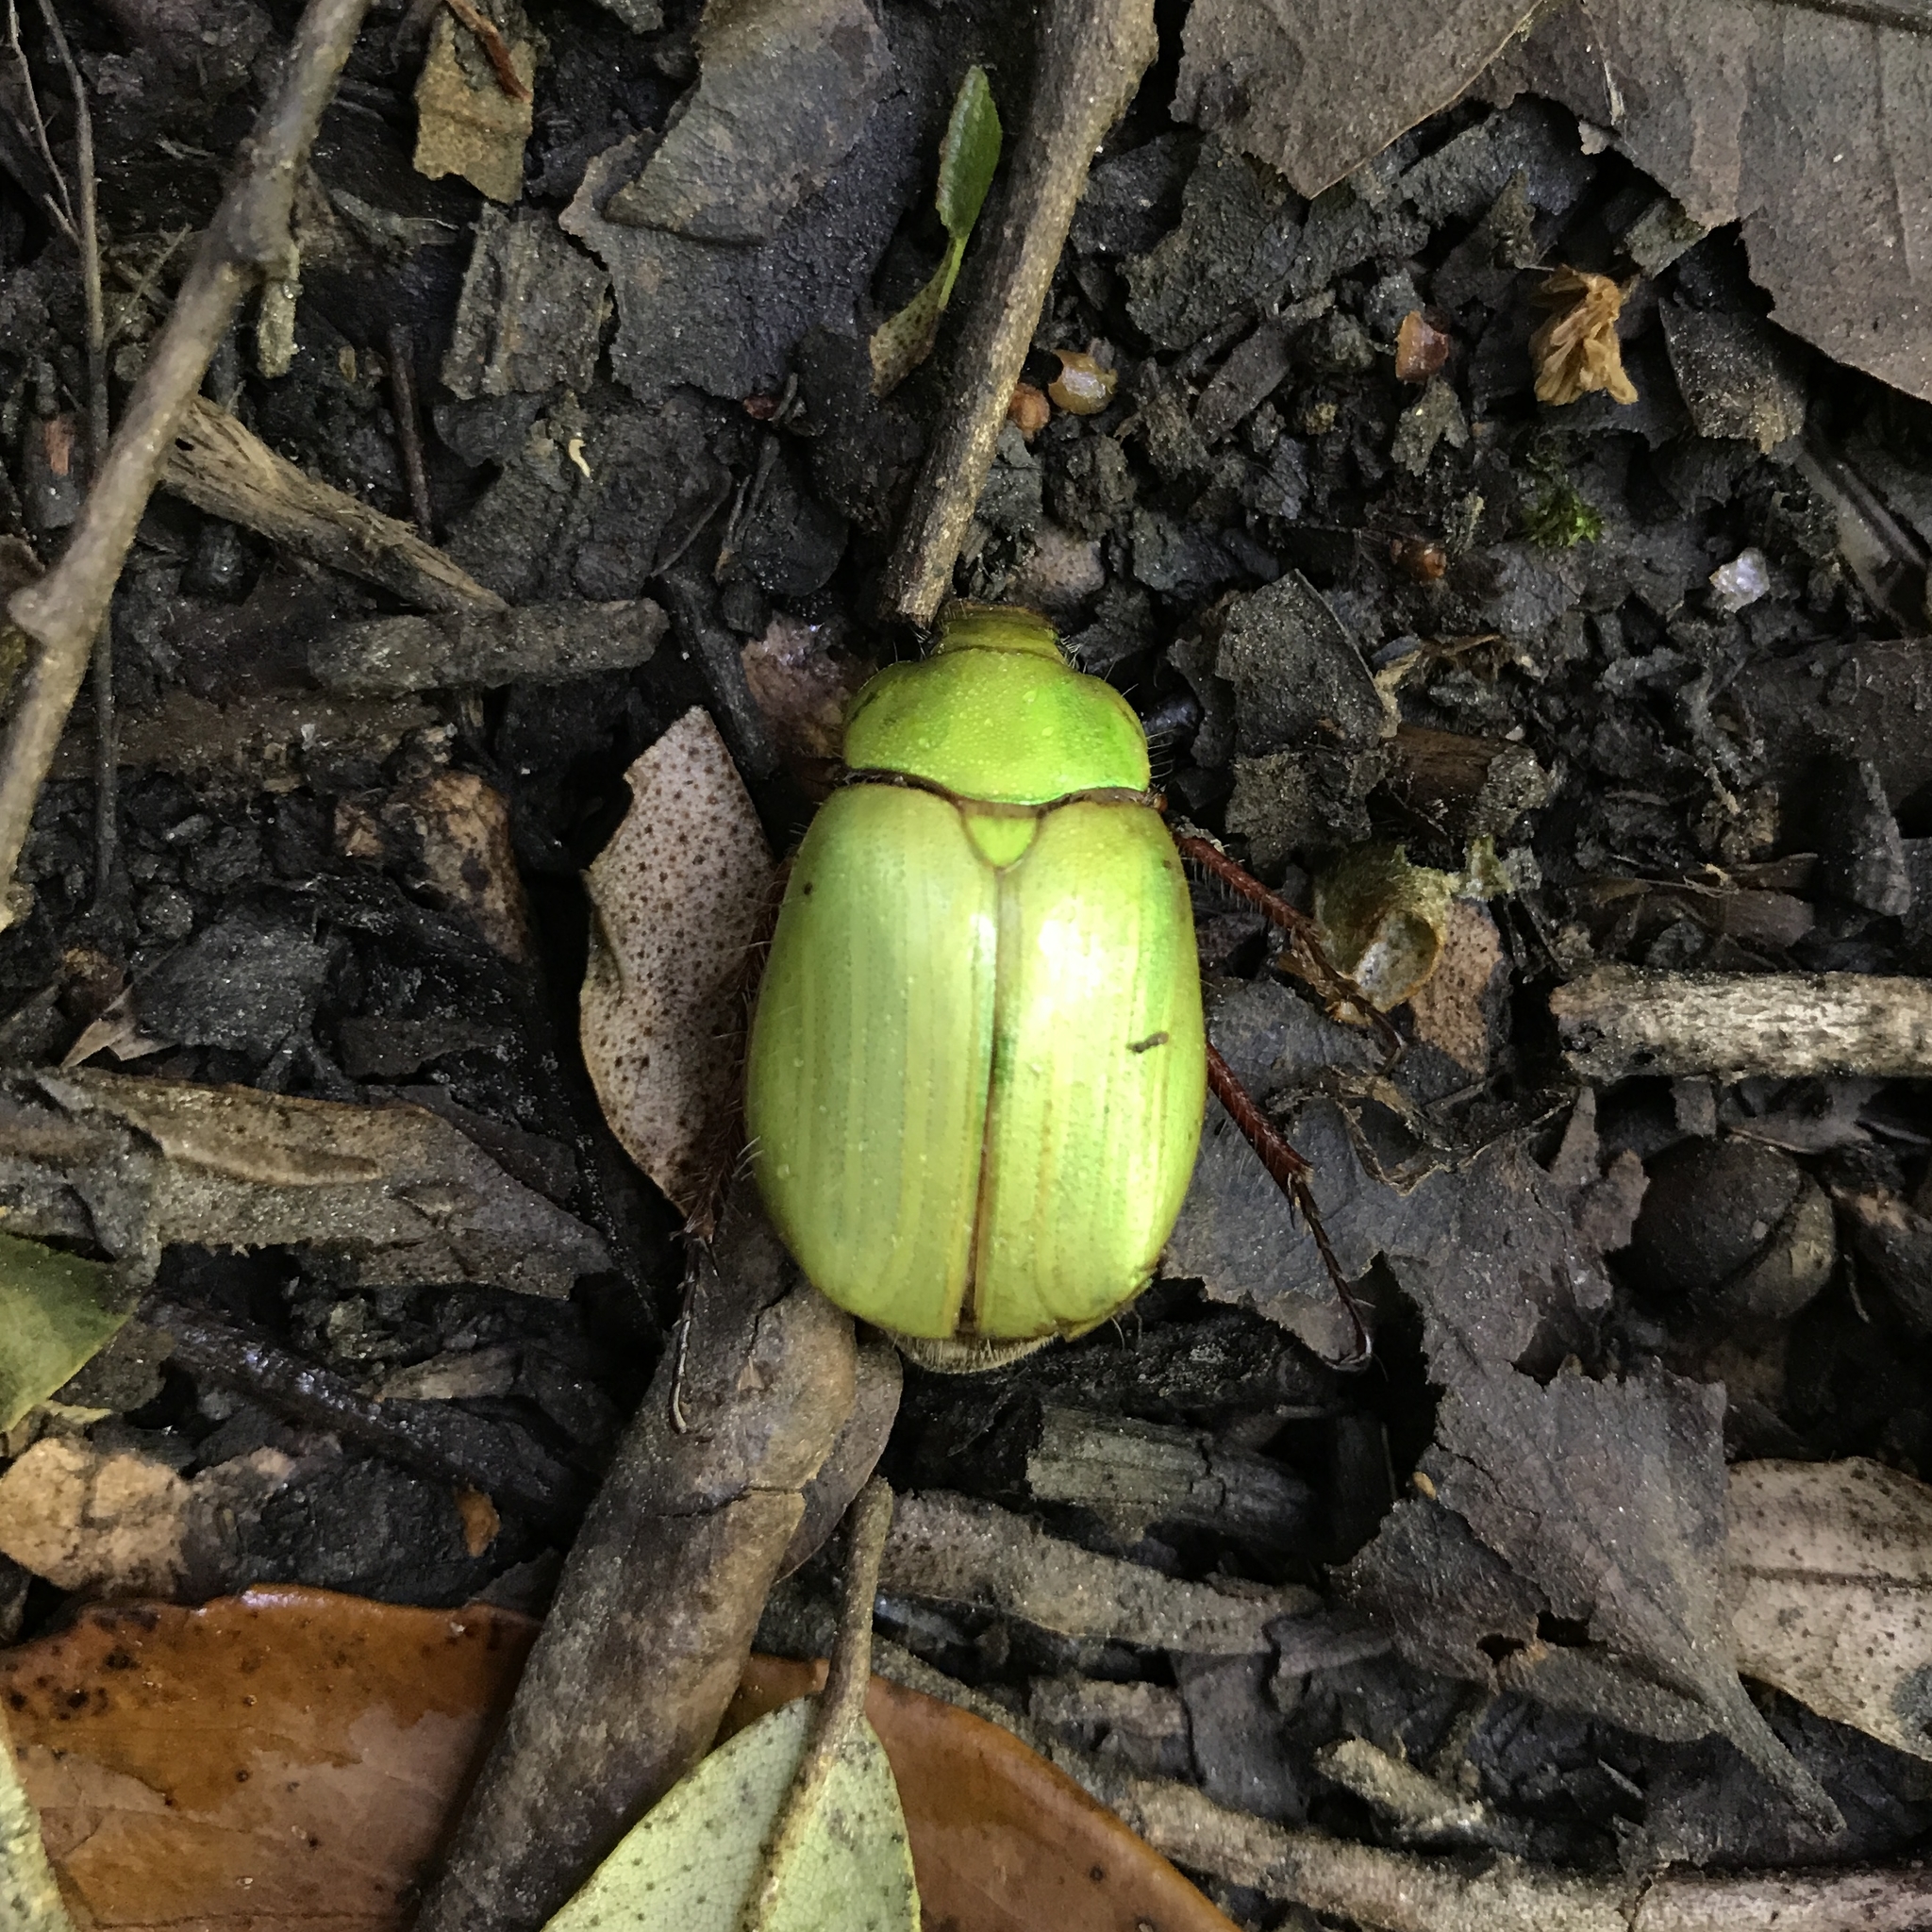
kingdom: Animalia
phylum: Arthropoda
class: Insecta
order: Coleoptera
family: Scarabaeidae
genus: Modialis
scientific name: Modialis prasinella
